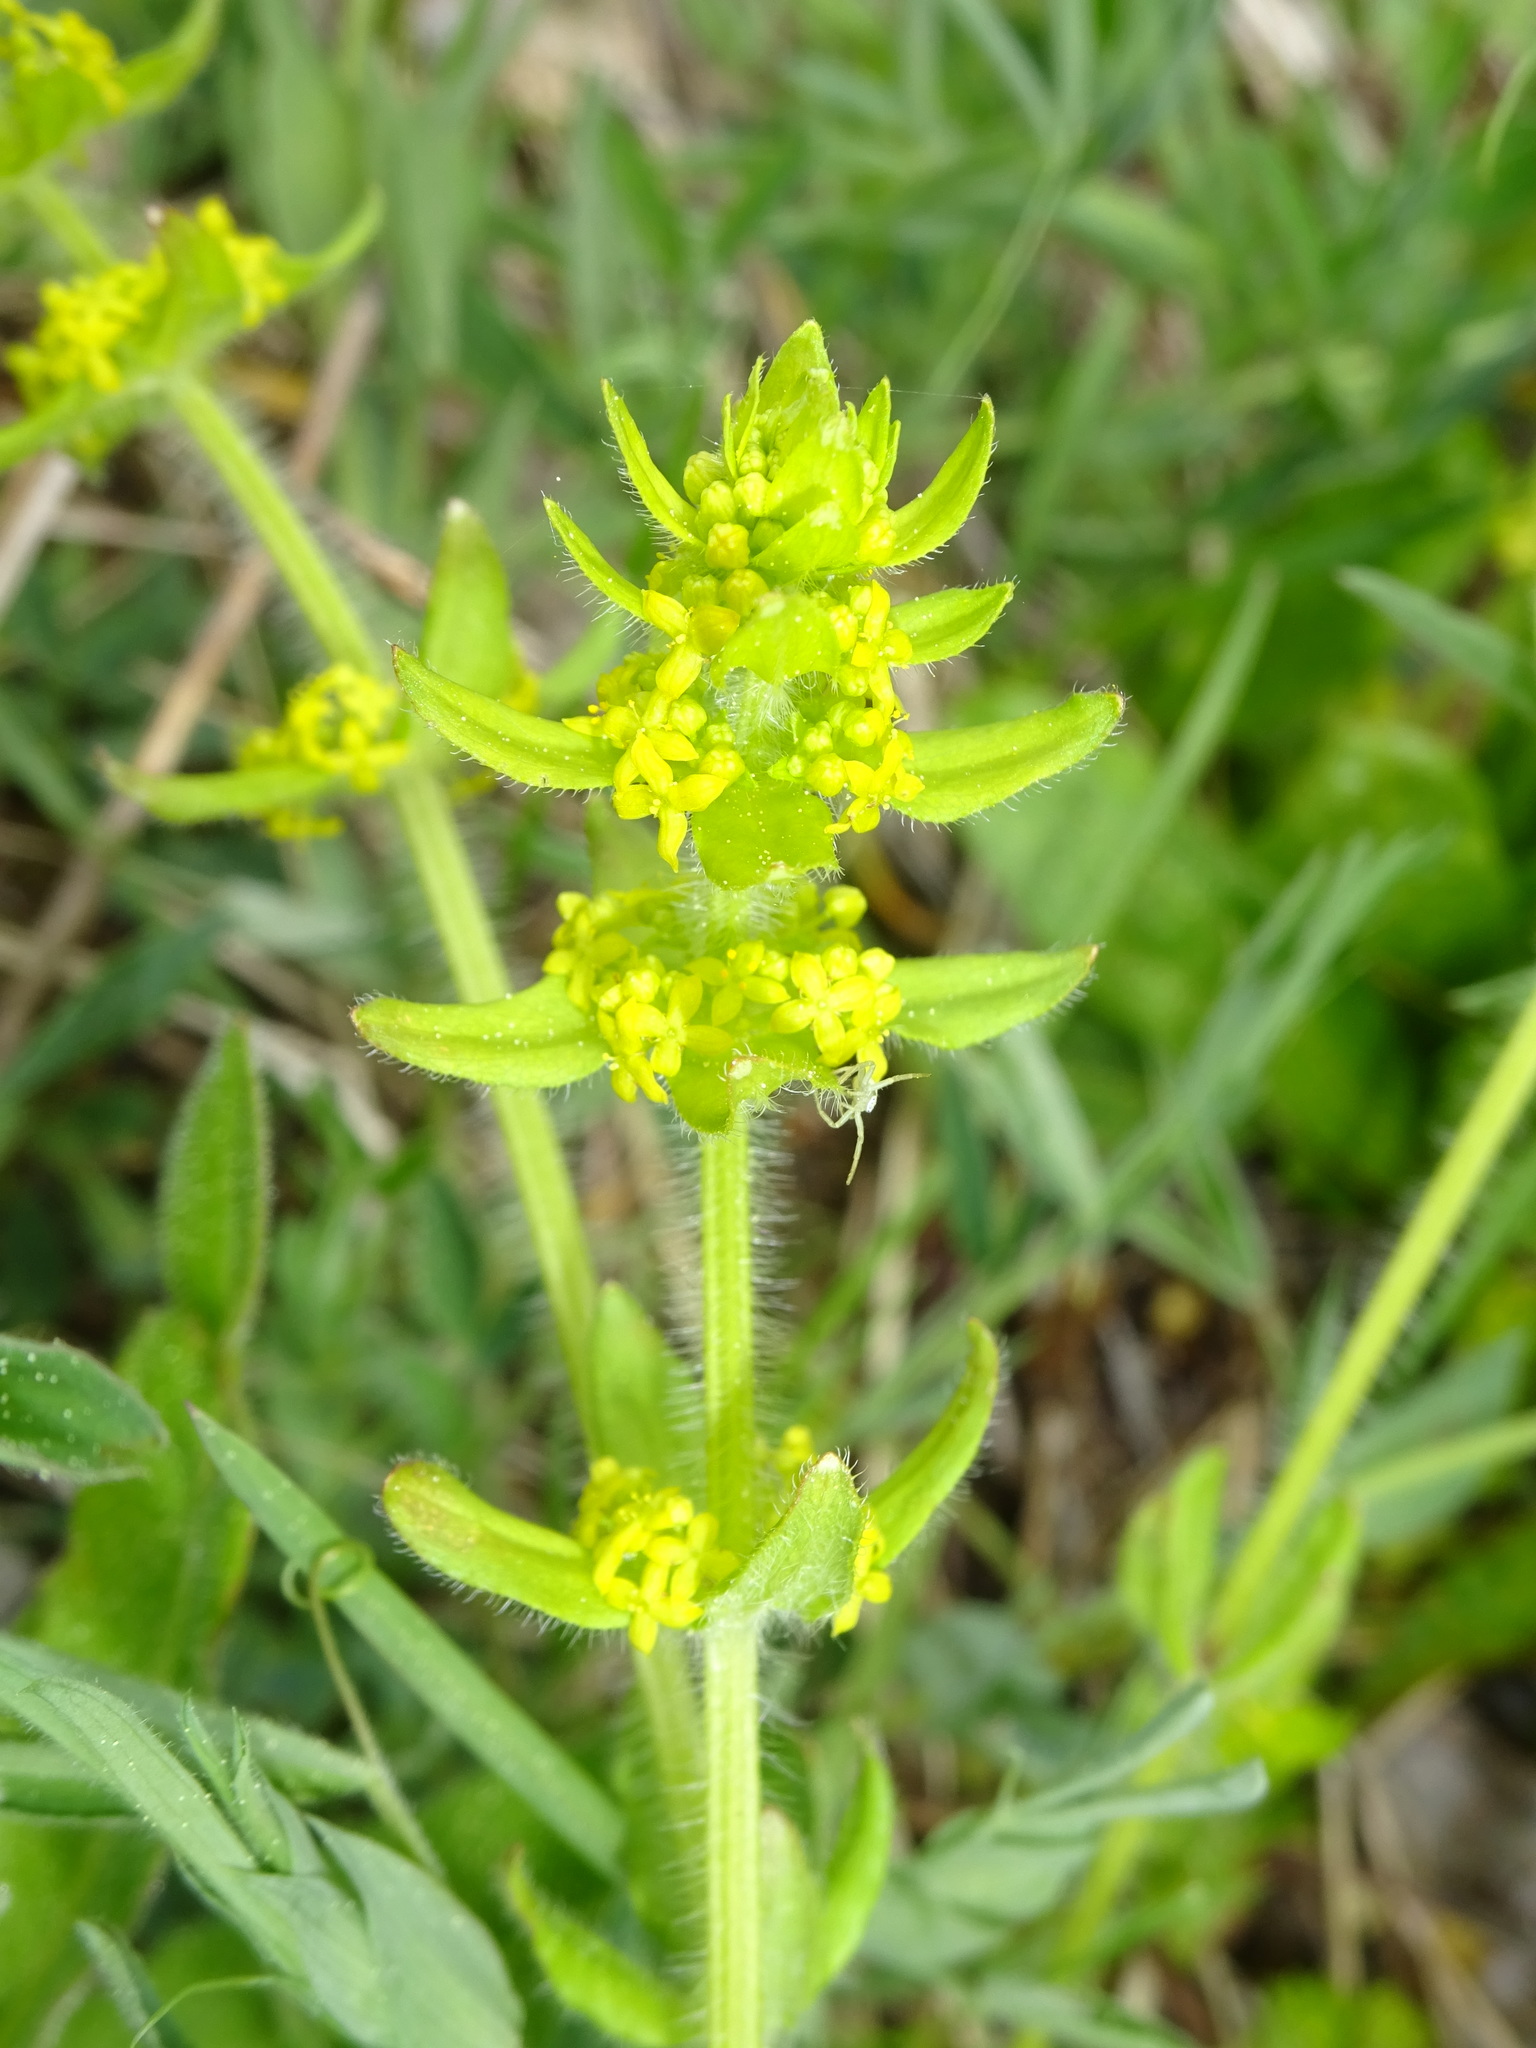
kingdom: Plantae
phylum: Tracheophyta
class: Magnoliopsida
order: Gentianales
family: Rubiaceae
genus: Cruciata
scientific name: Cruciata laevipes
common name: Crosswort
